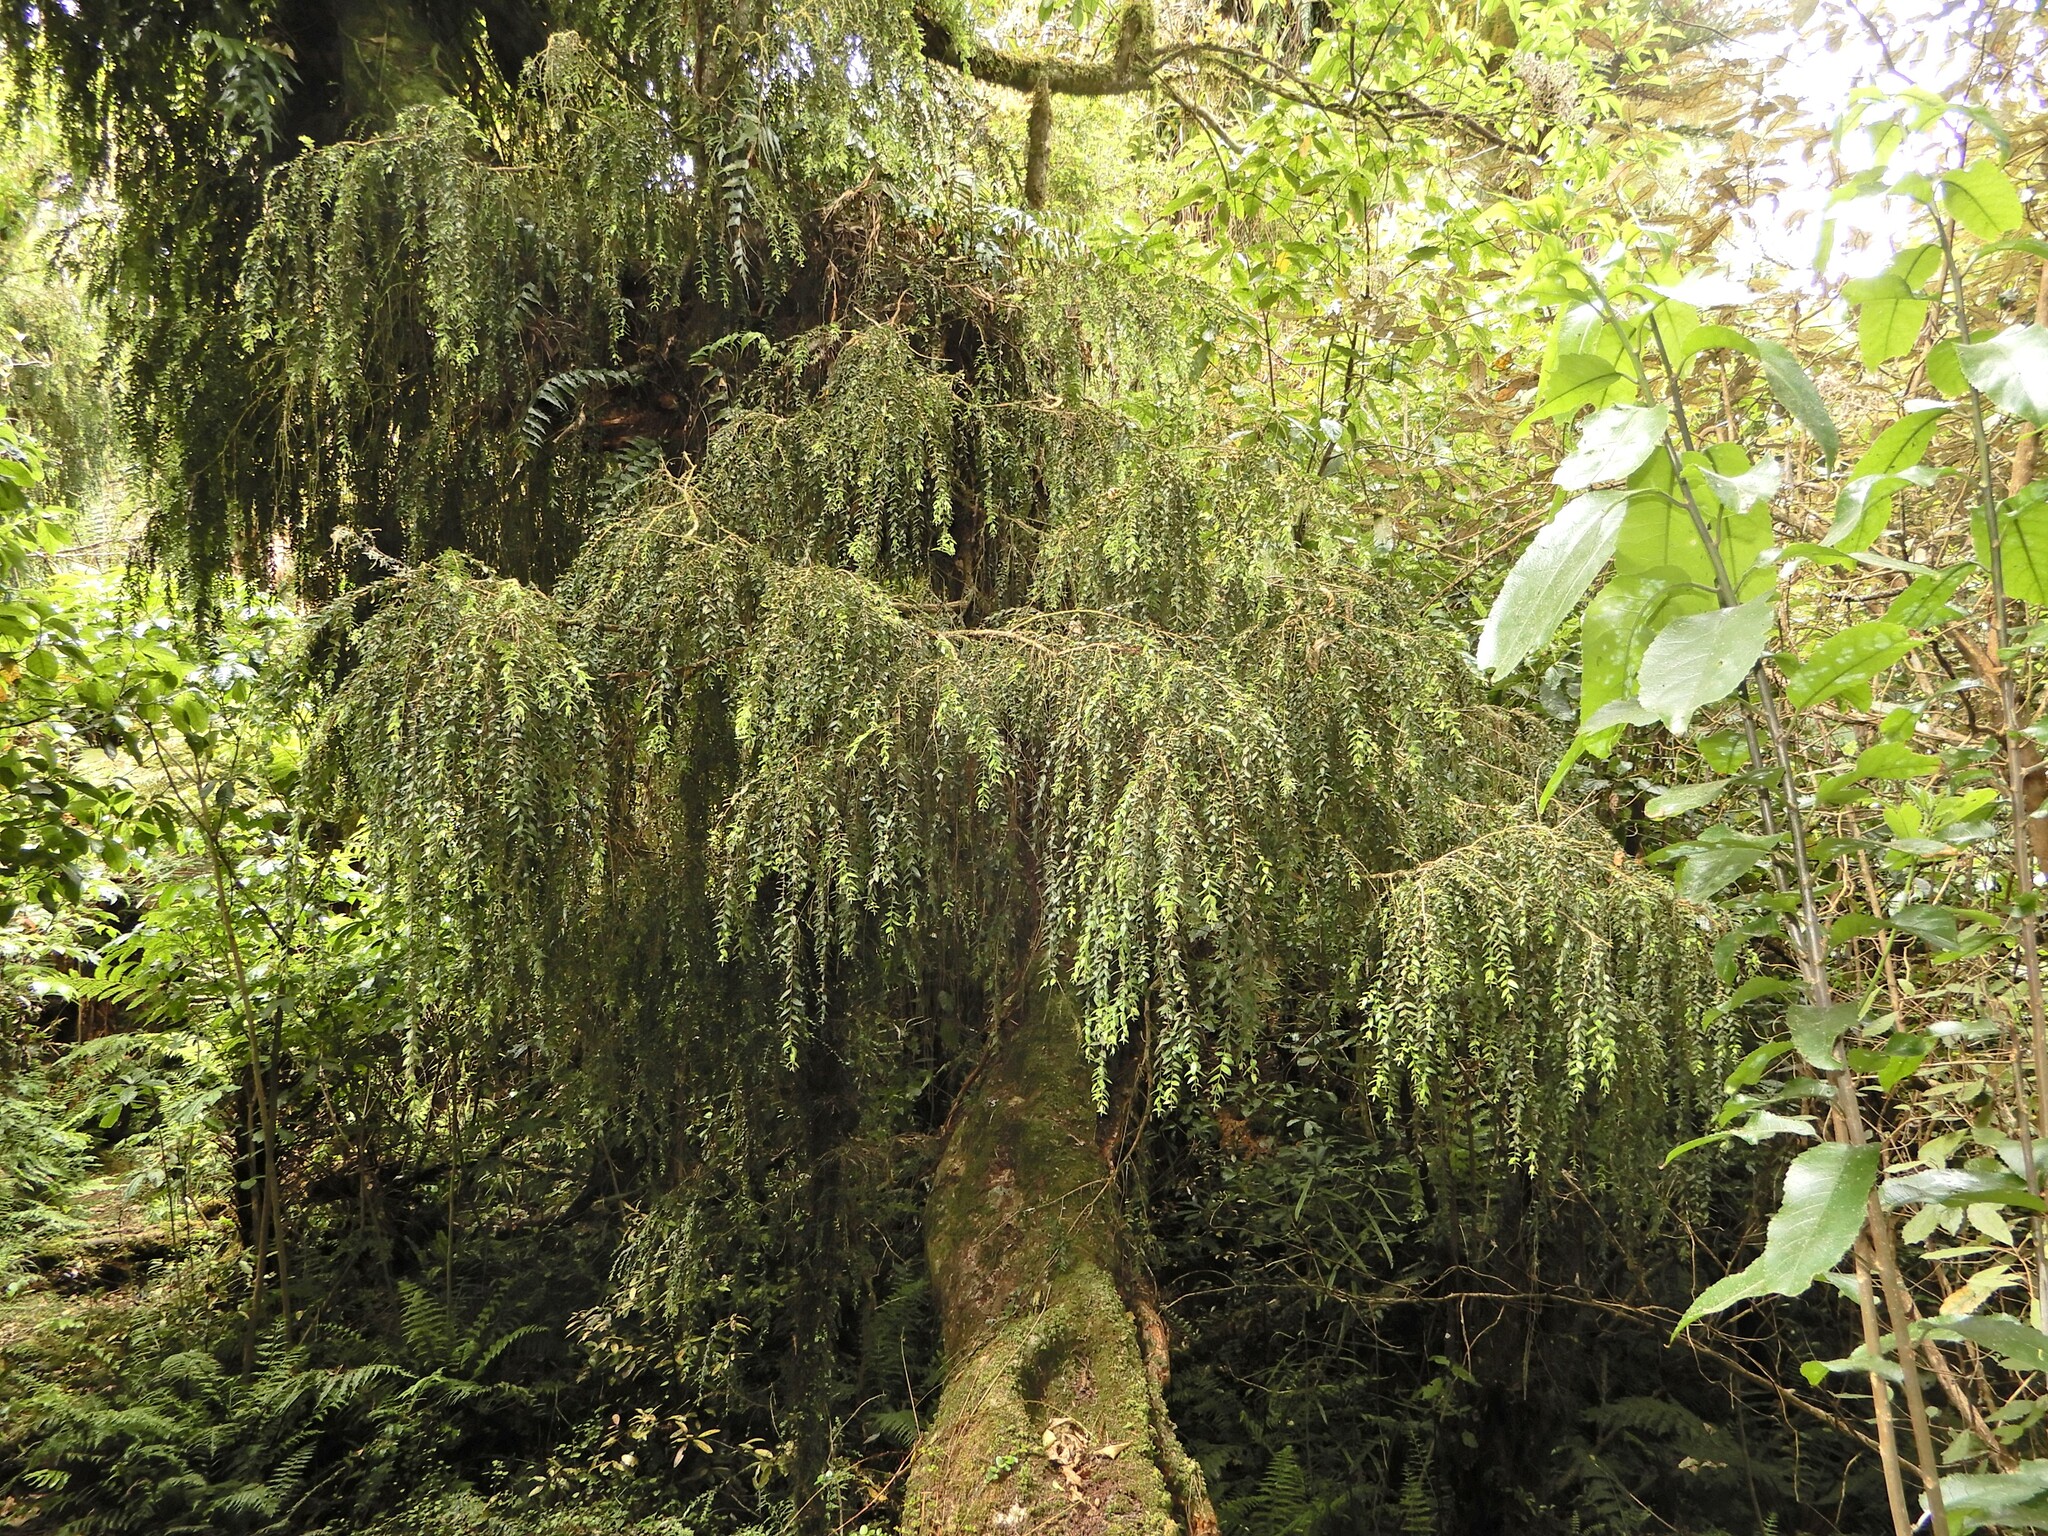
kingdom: Plantae
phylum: Tracheophyta
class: Magnoliopsida
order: Myrtales
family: Myrtaceae
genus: Metrosideros
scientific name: Metrosideros colensoi
